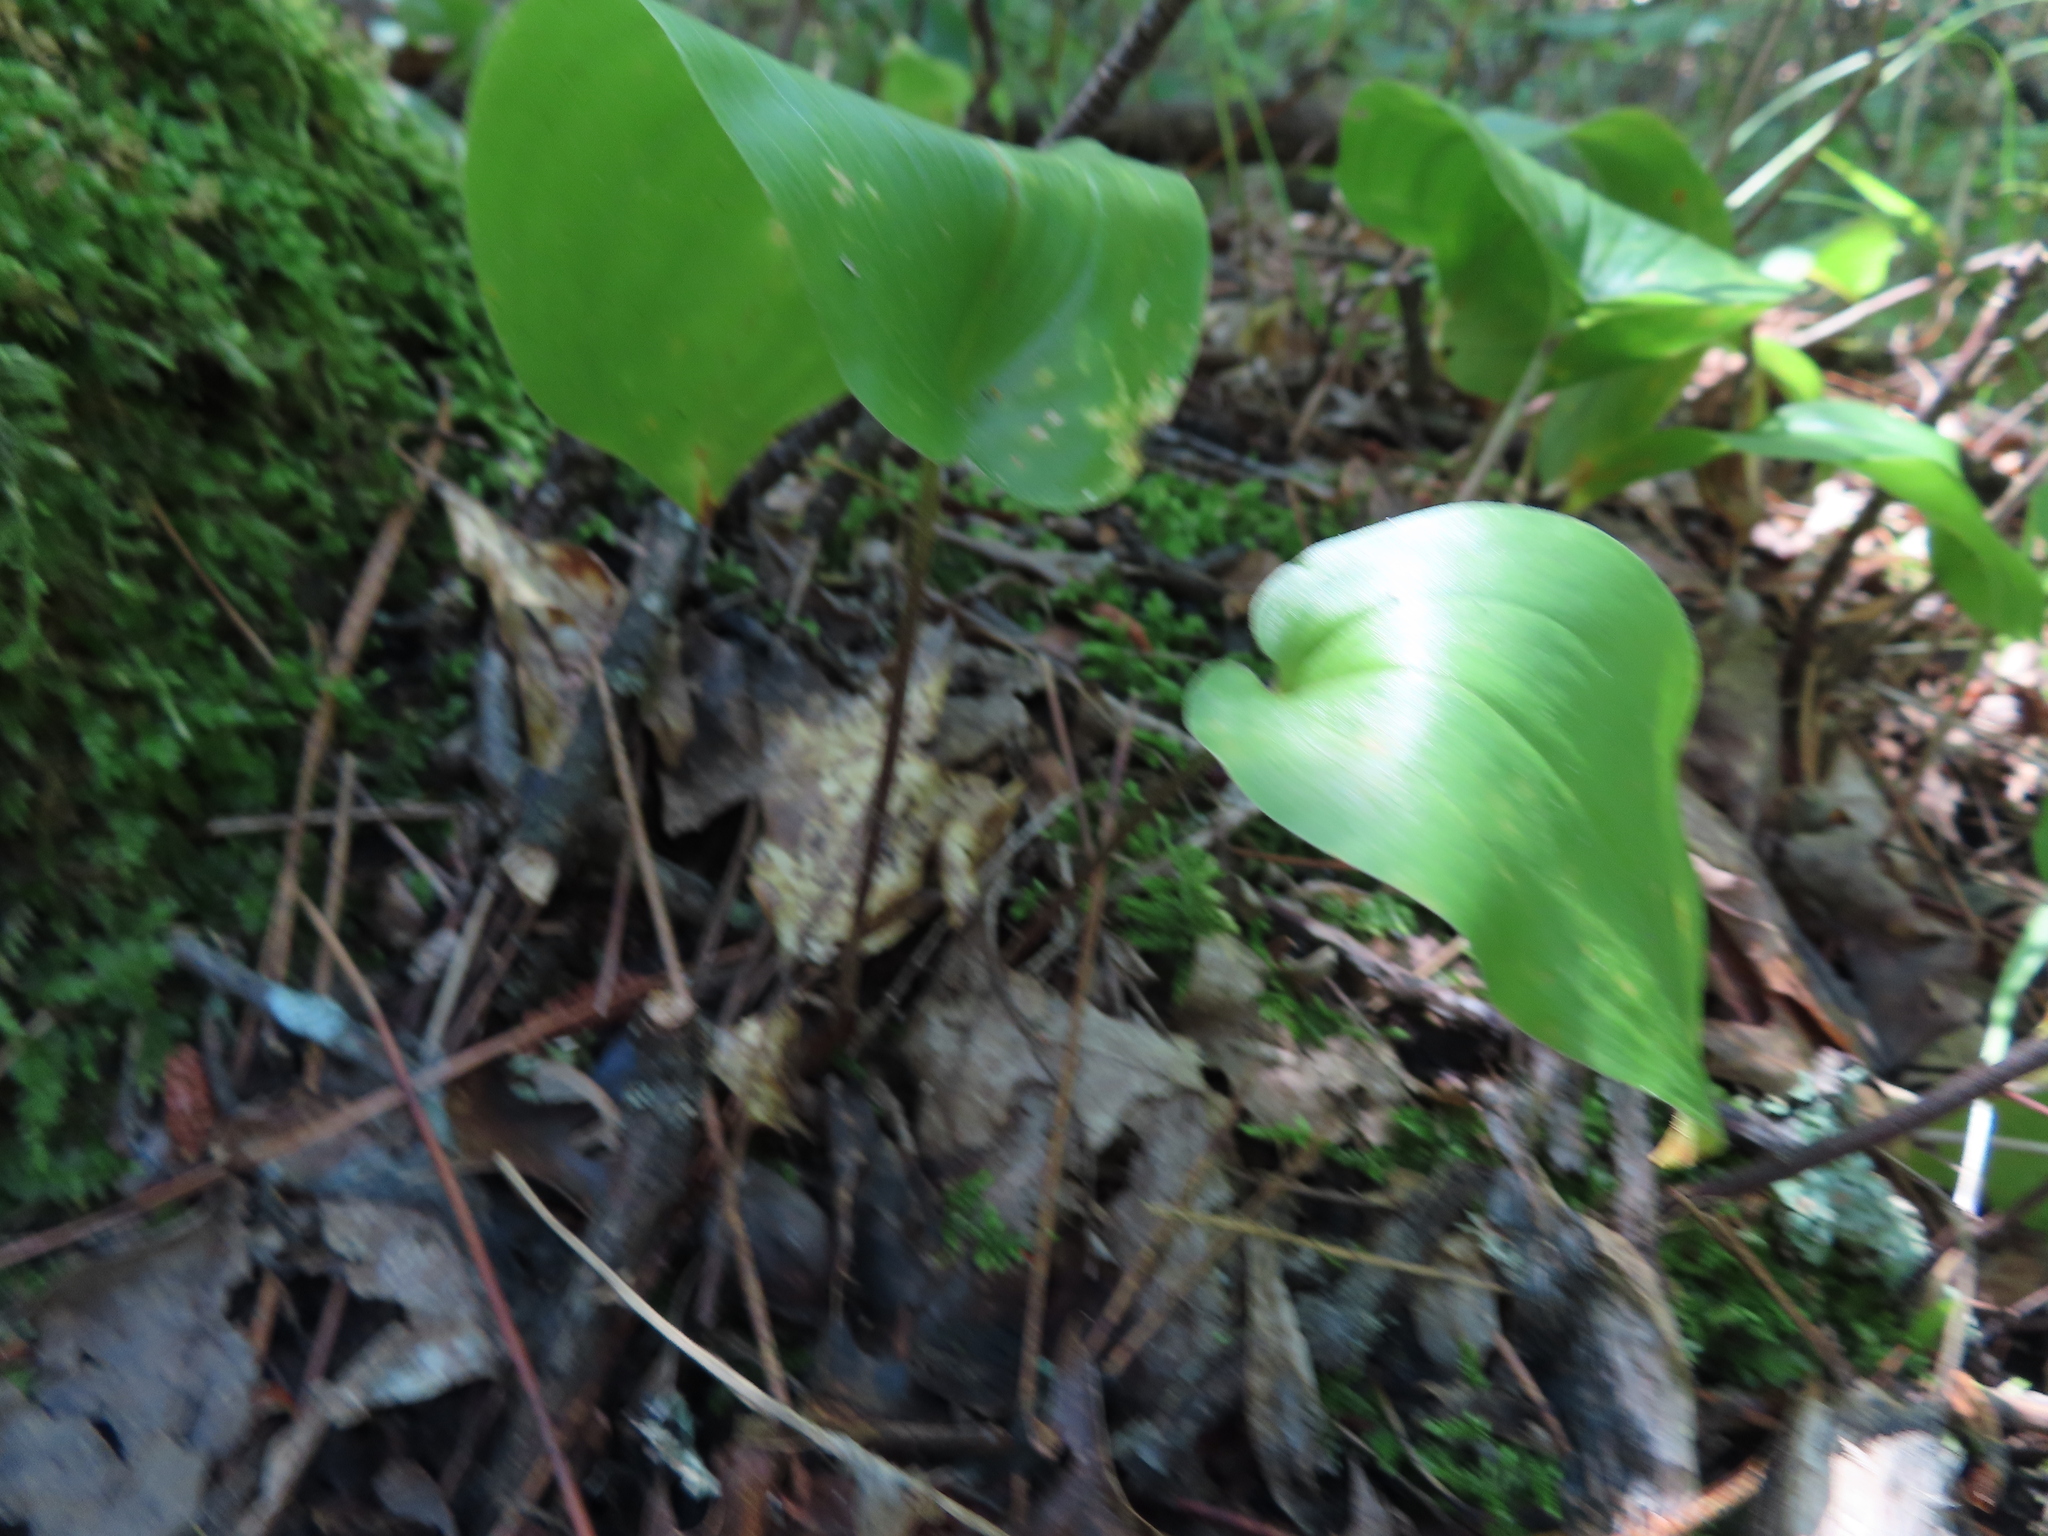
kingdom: Plantae
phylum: Tracheophyta
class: Liliopsida
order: Asparagales
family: Asparagaceae
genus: Maianthemum
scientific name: Maianthemum canadense
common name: False lily-of-the-valley
